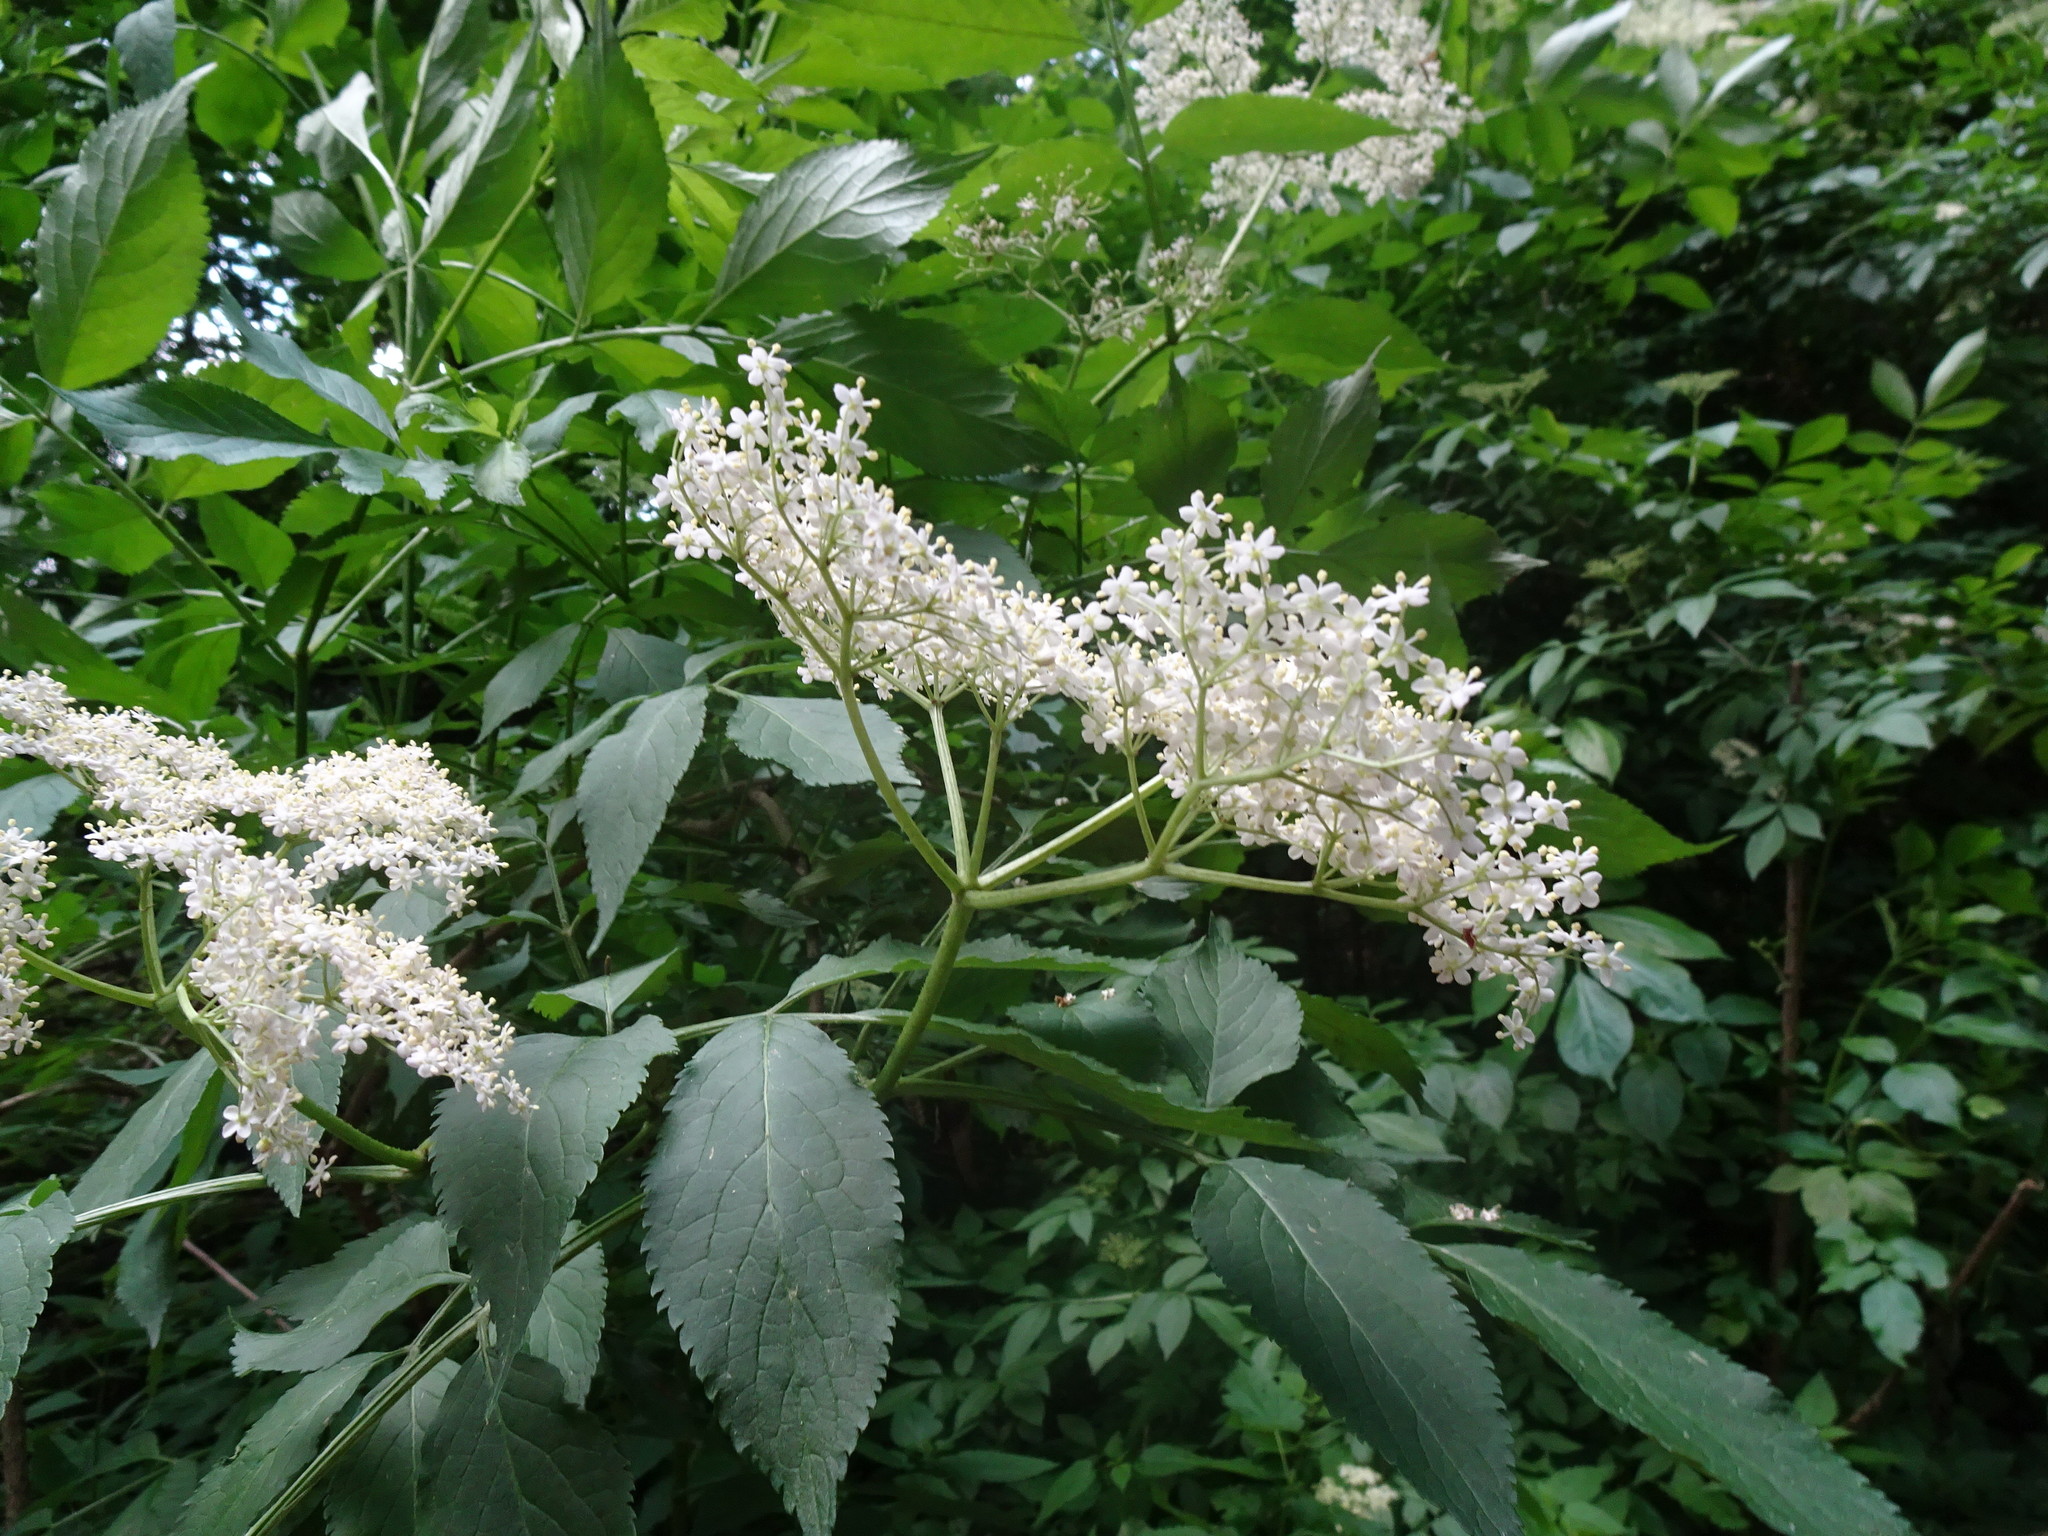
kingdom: Plantae
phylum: Tracheophyta
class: Magnoliopsida
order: Dipsacales
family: Viburnaceae
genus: Sambucus
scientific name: Sambucus nigra
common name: Elder
